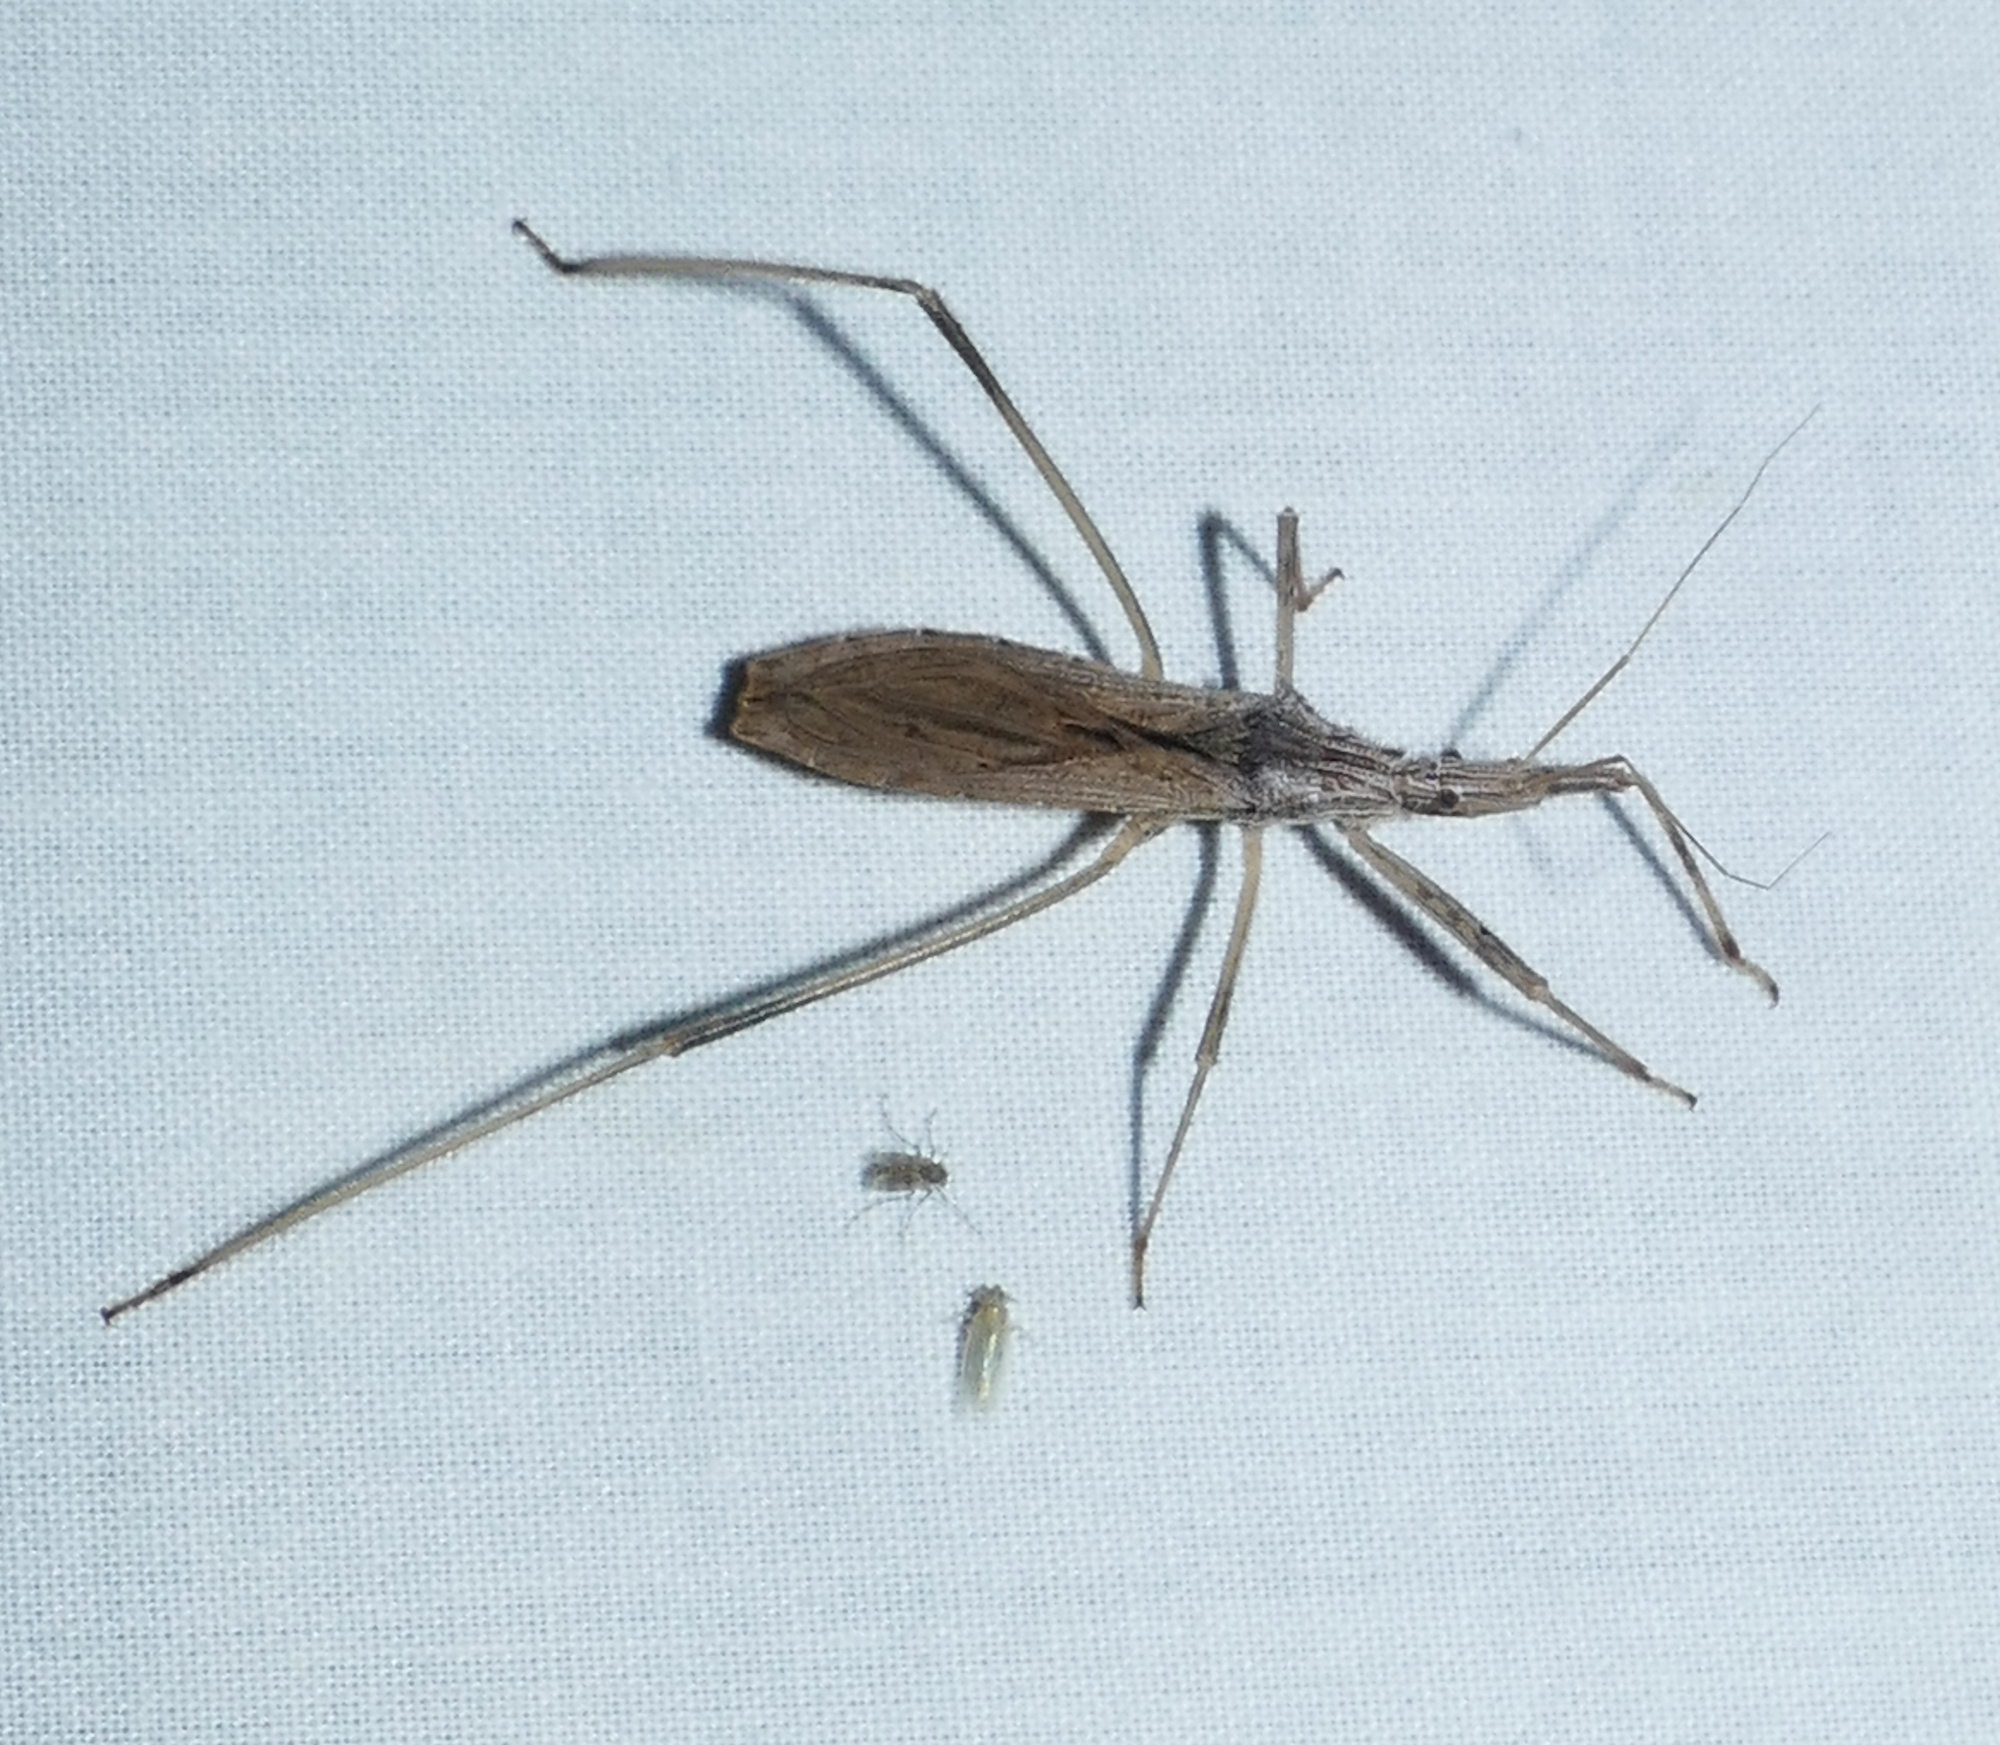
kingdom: Animalia
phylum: Arthropoda
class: Insecta
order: Hemiptera
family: Reduviidae
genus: Stenopoda
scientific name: Stenopoda spinulosa
